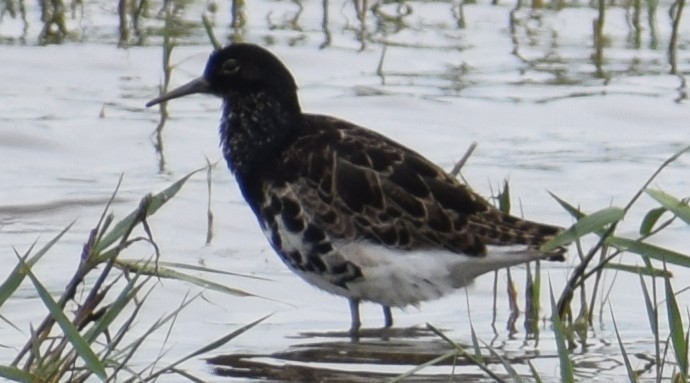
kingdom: Animalia
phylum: Chordata
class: Aves
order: Charadriiformes
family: Scolopacidae
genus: Calidris
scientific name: Calidris pugnax
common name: Ruff
